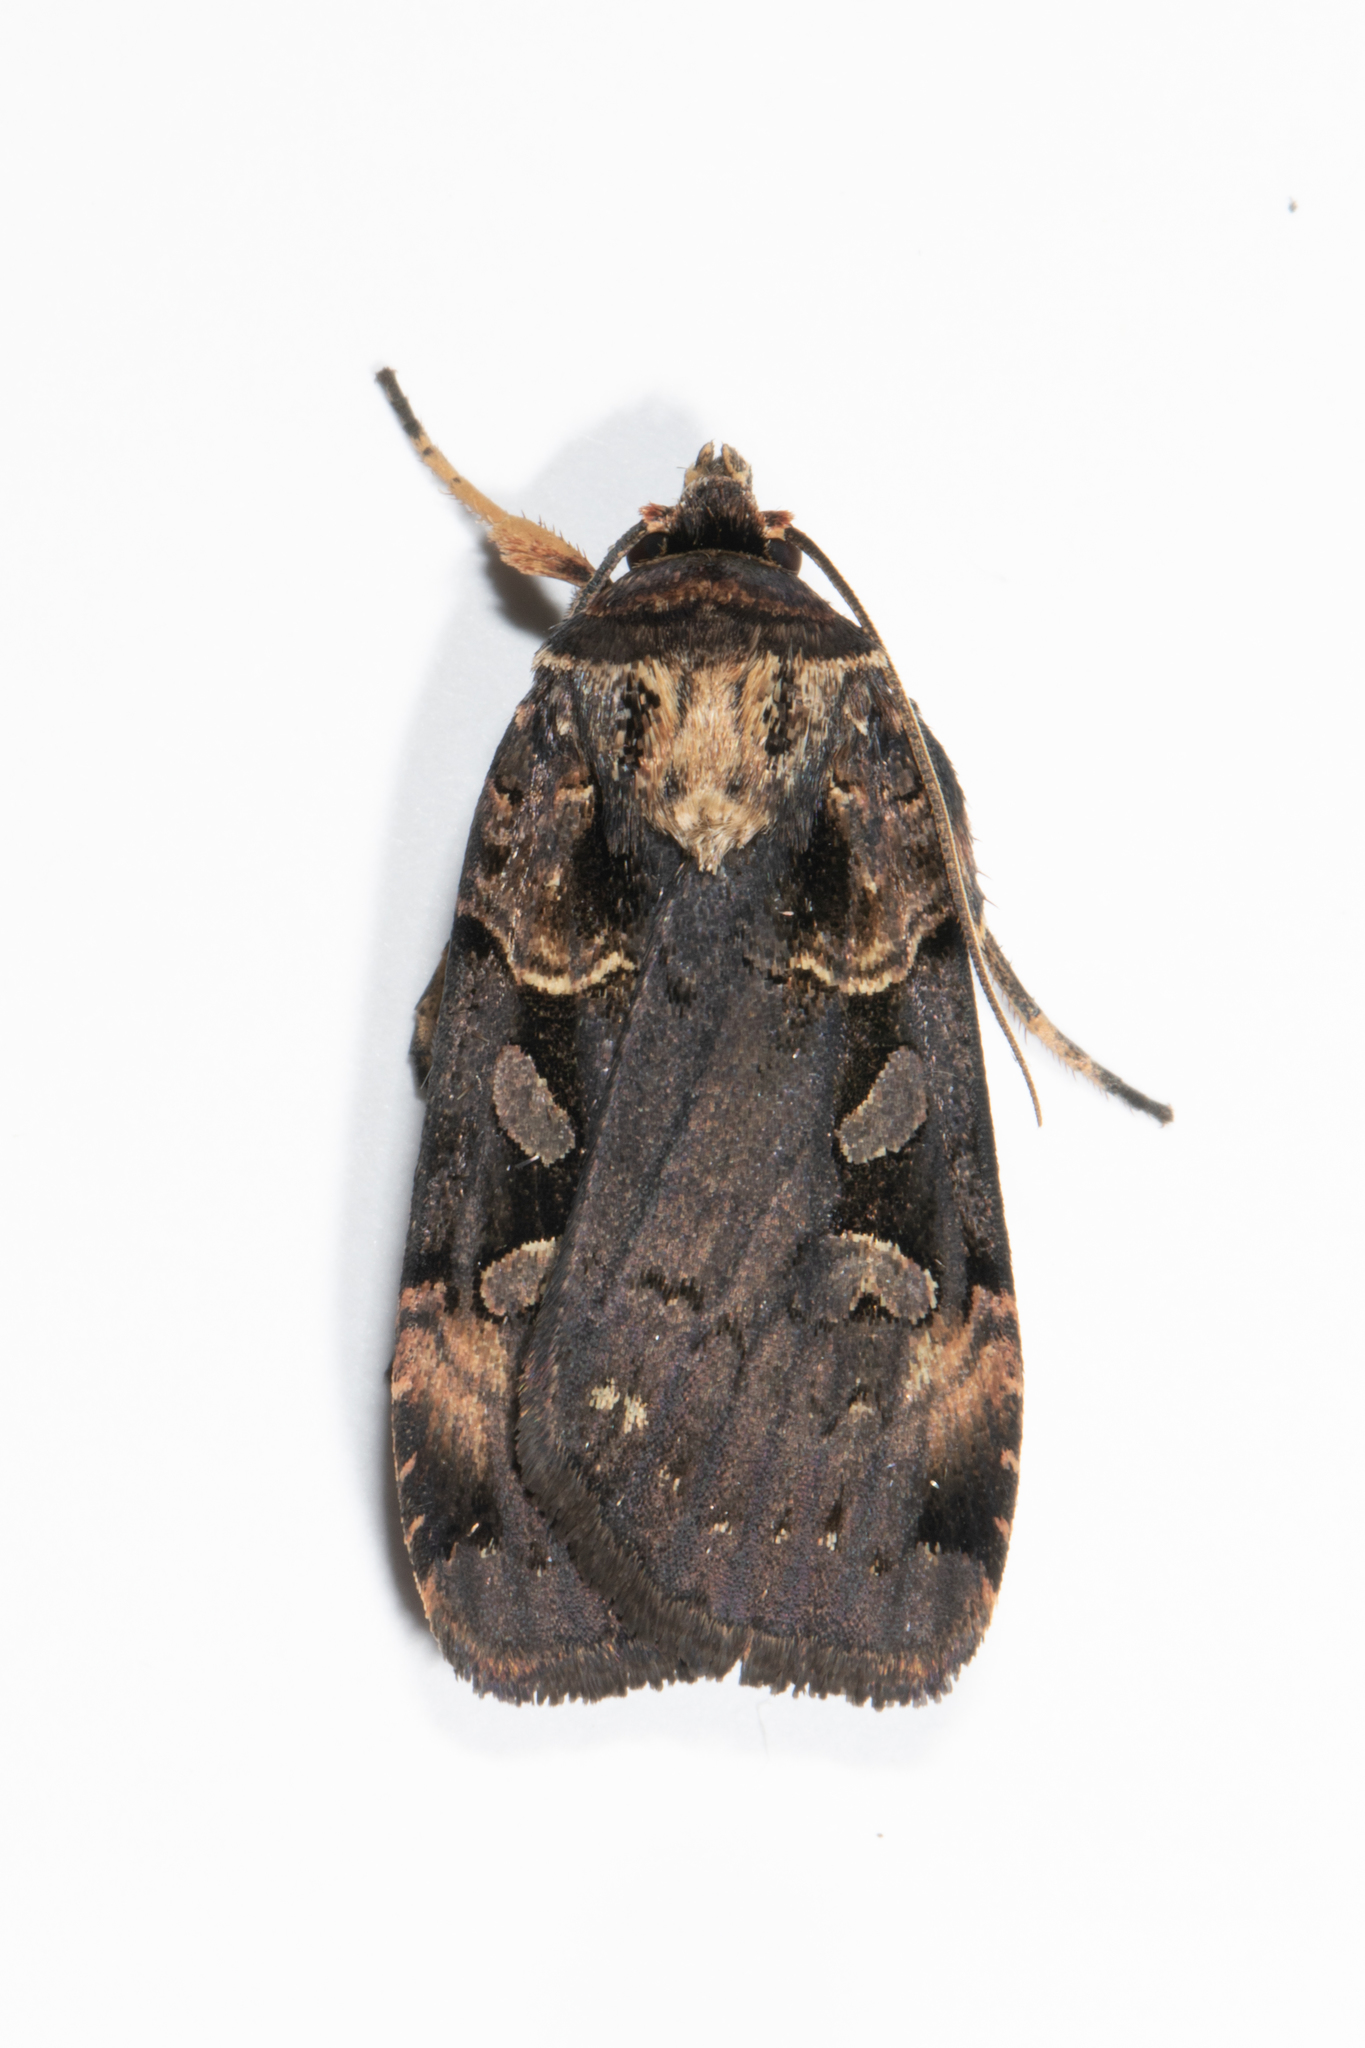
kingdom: Animalia
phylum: Arthropoda
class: Insecta
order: Lepidoptera
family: Noctuidae
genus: Pseudohermonassa
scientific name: Pseudohermonassa bicarnea
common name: Pink spotted dart
